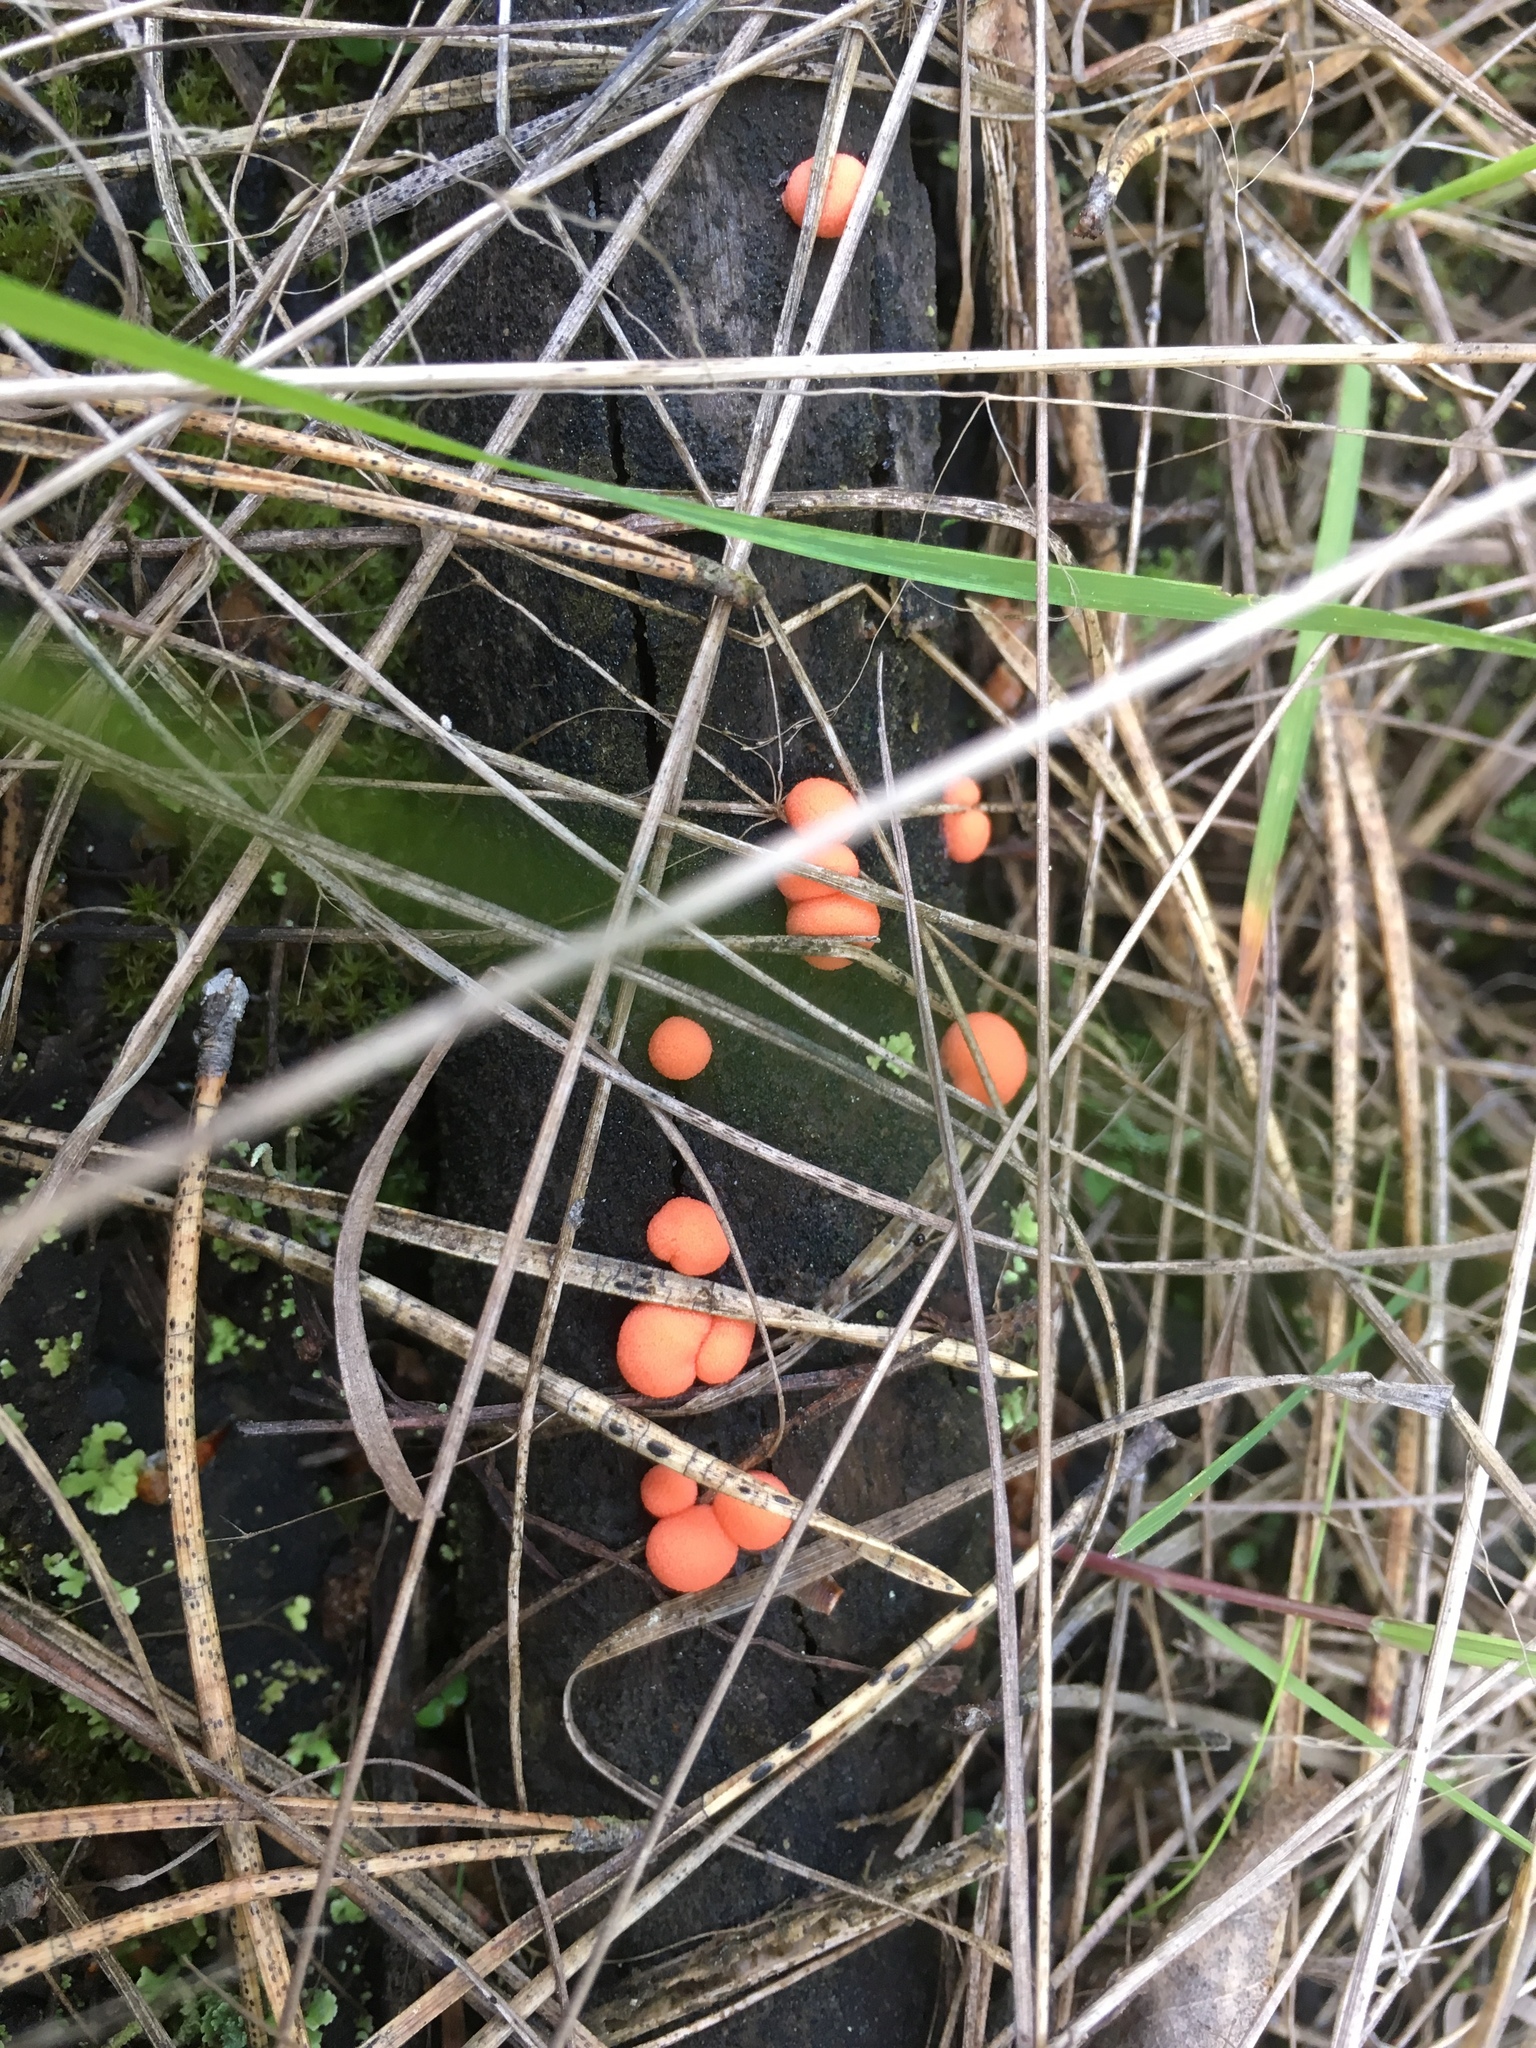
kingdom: Protozoa
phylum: Mycetozoa
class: Myxomycetes
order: Cribrariales
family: Tubiferaceae
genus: Lycogala
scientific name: Lycogala epidendrum
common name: Wolf's milk
